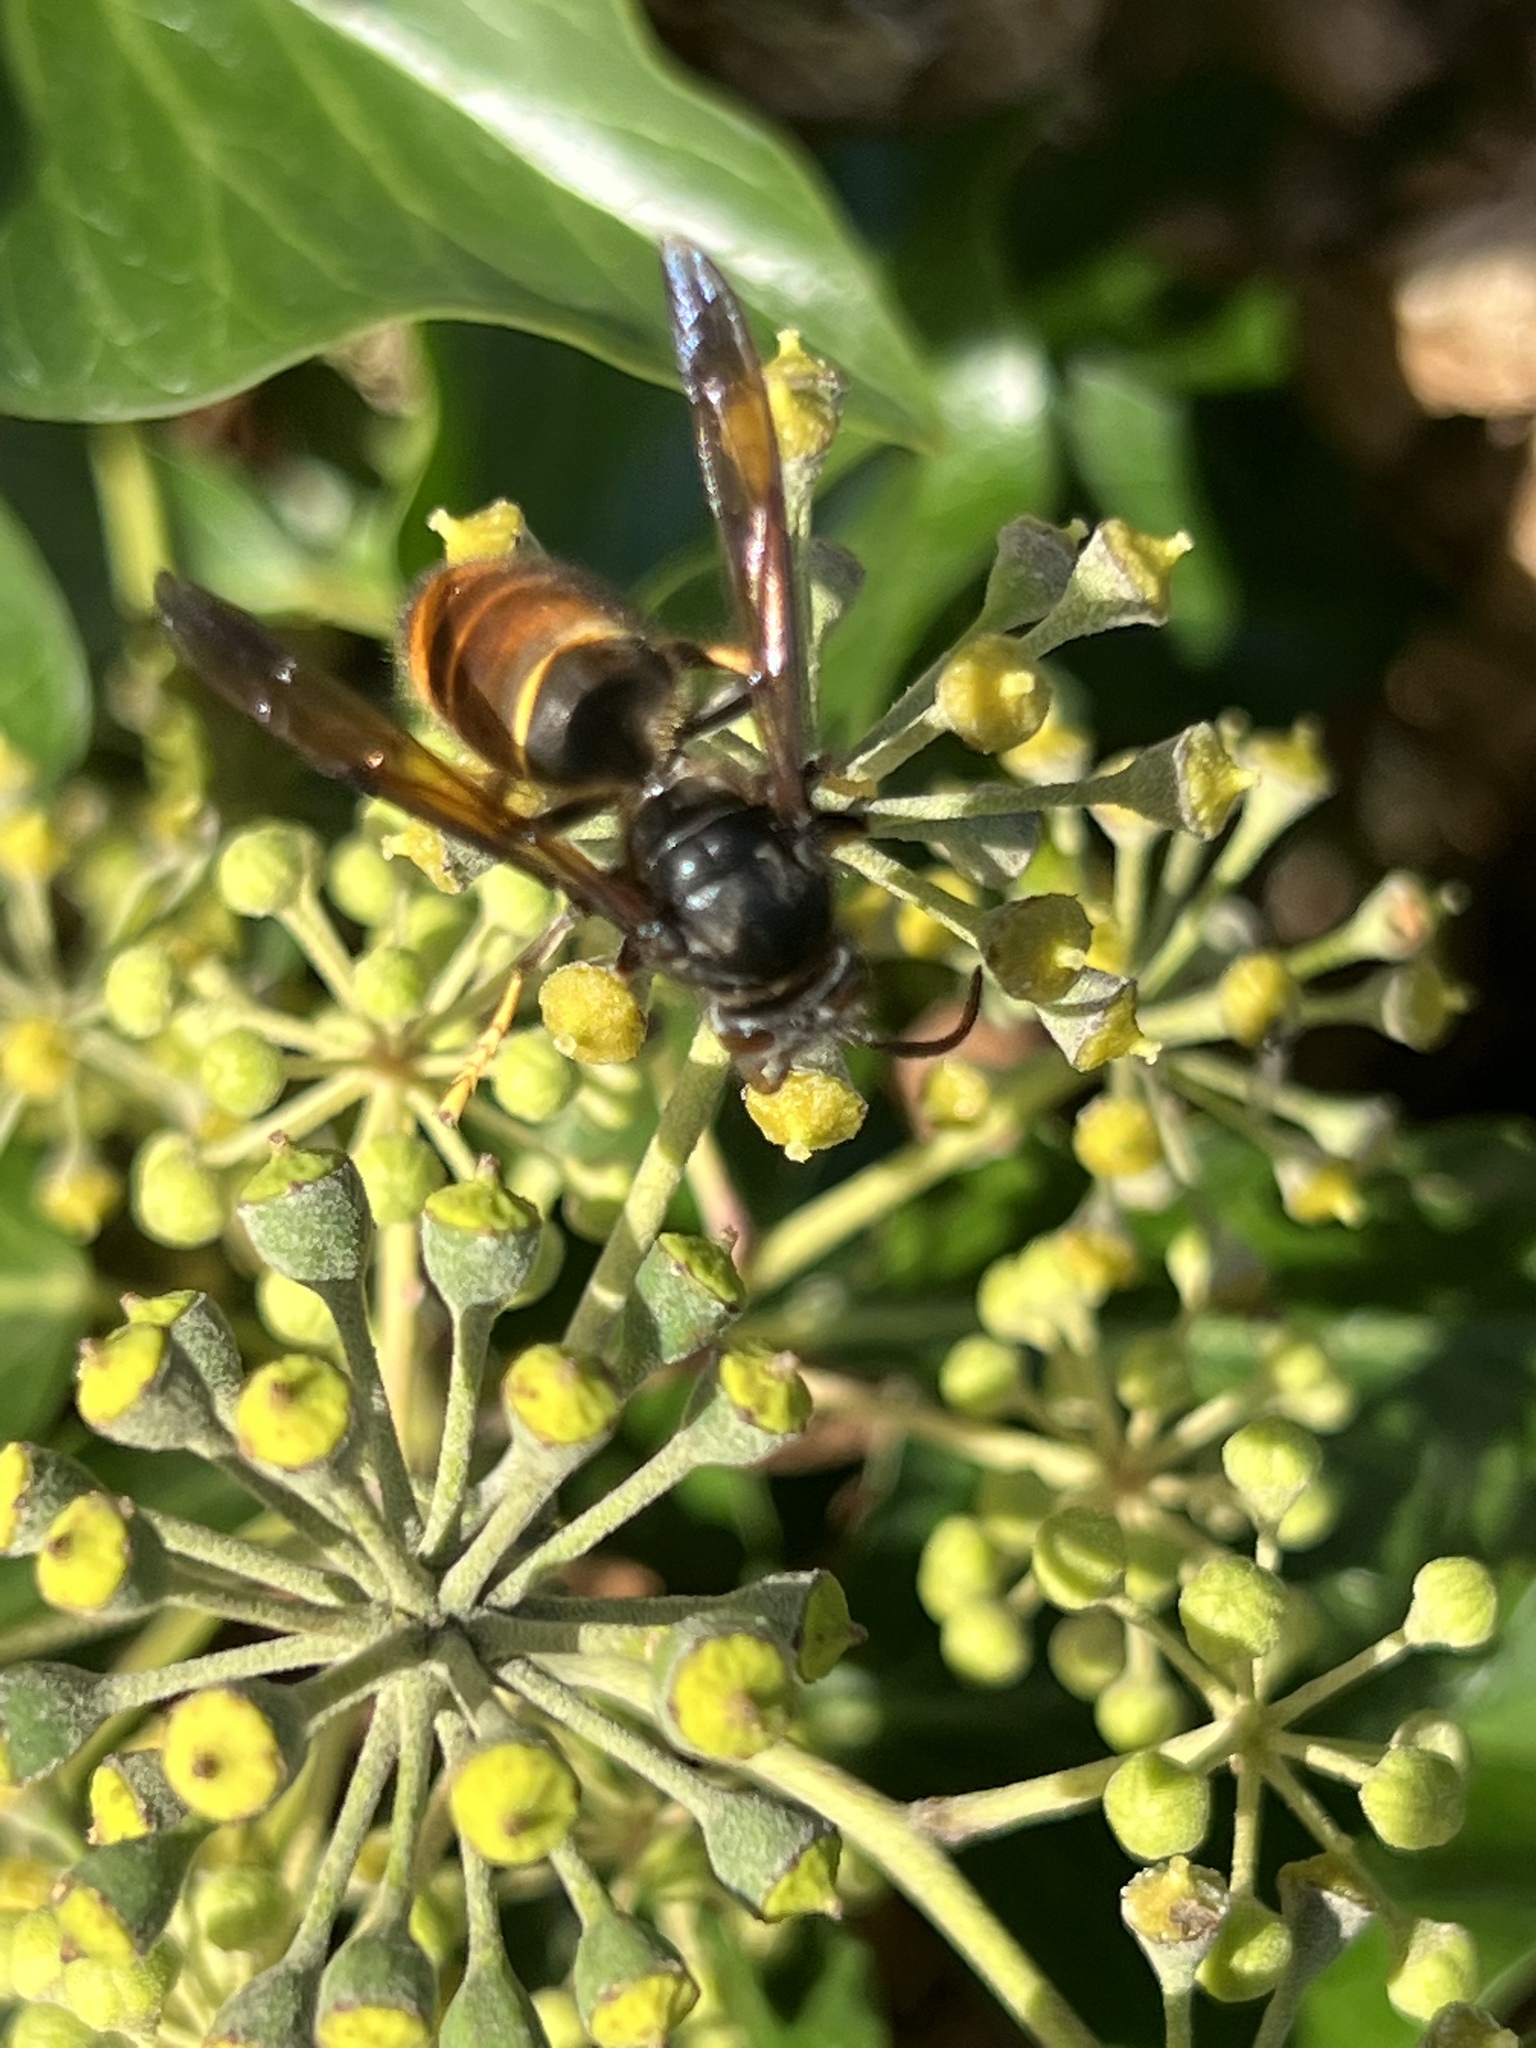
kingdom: Animalia
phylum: Arthropoda
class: Insecta
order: Hymenoptera
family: Vespidae
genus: Vespa
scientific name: Vespa velutina
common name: Asian hornet
